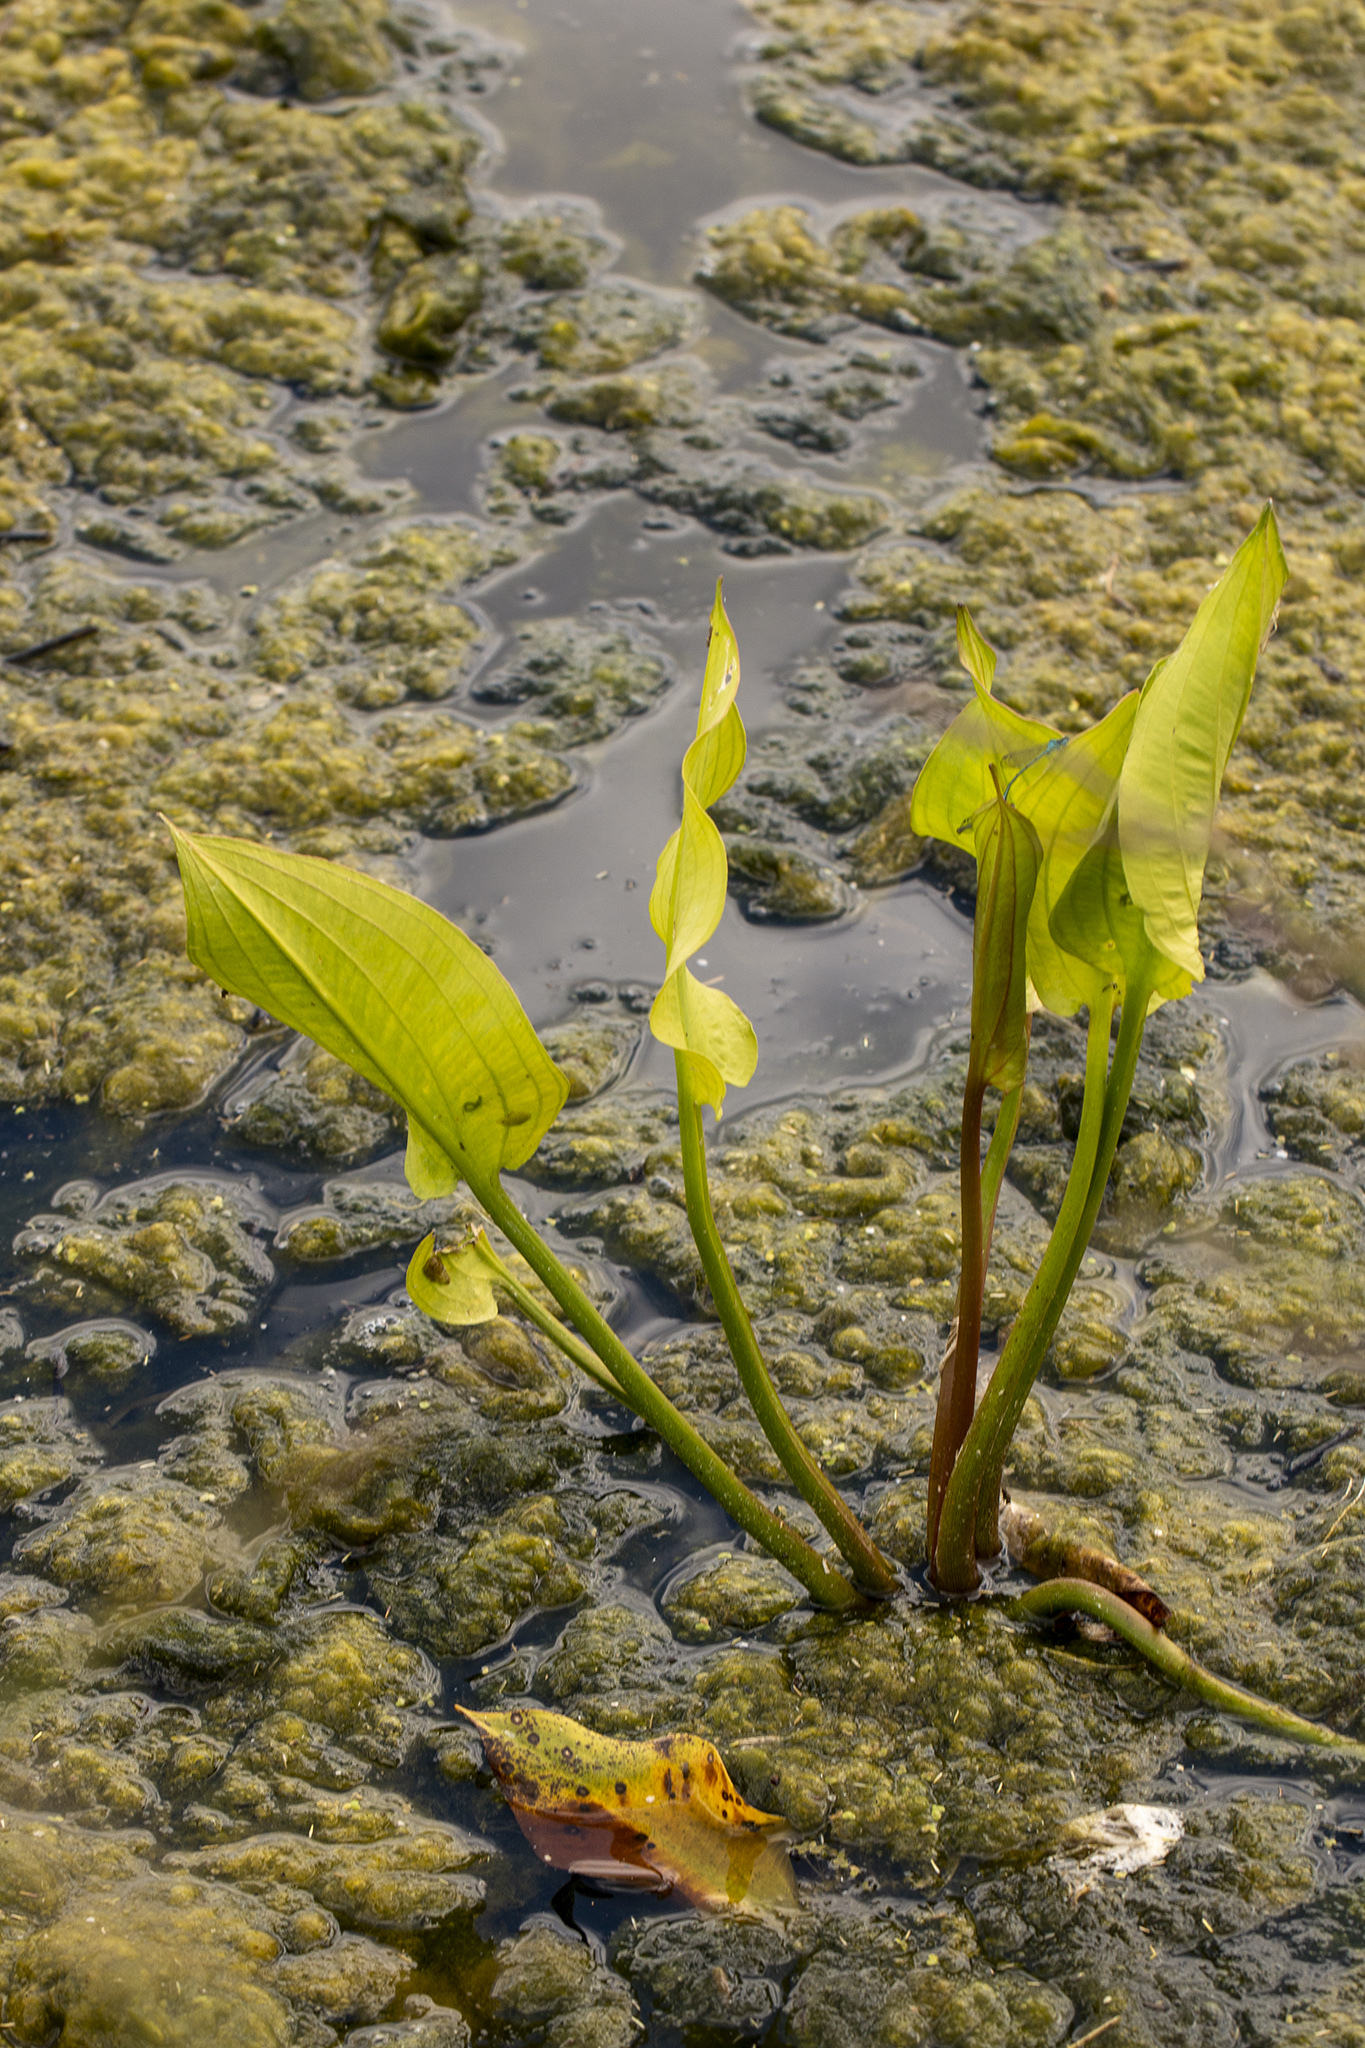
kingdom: Plantae
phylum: Tracheophyta
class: Liliopsida
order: Alismatales
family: Alismataceae
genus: Alisma
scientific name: Alisma plantago-aquatica
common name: Water-plantain
